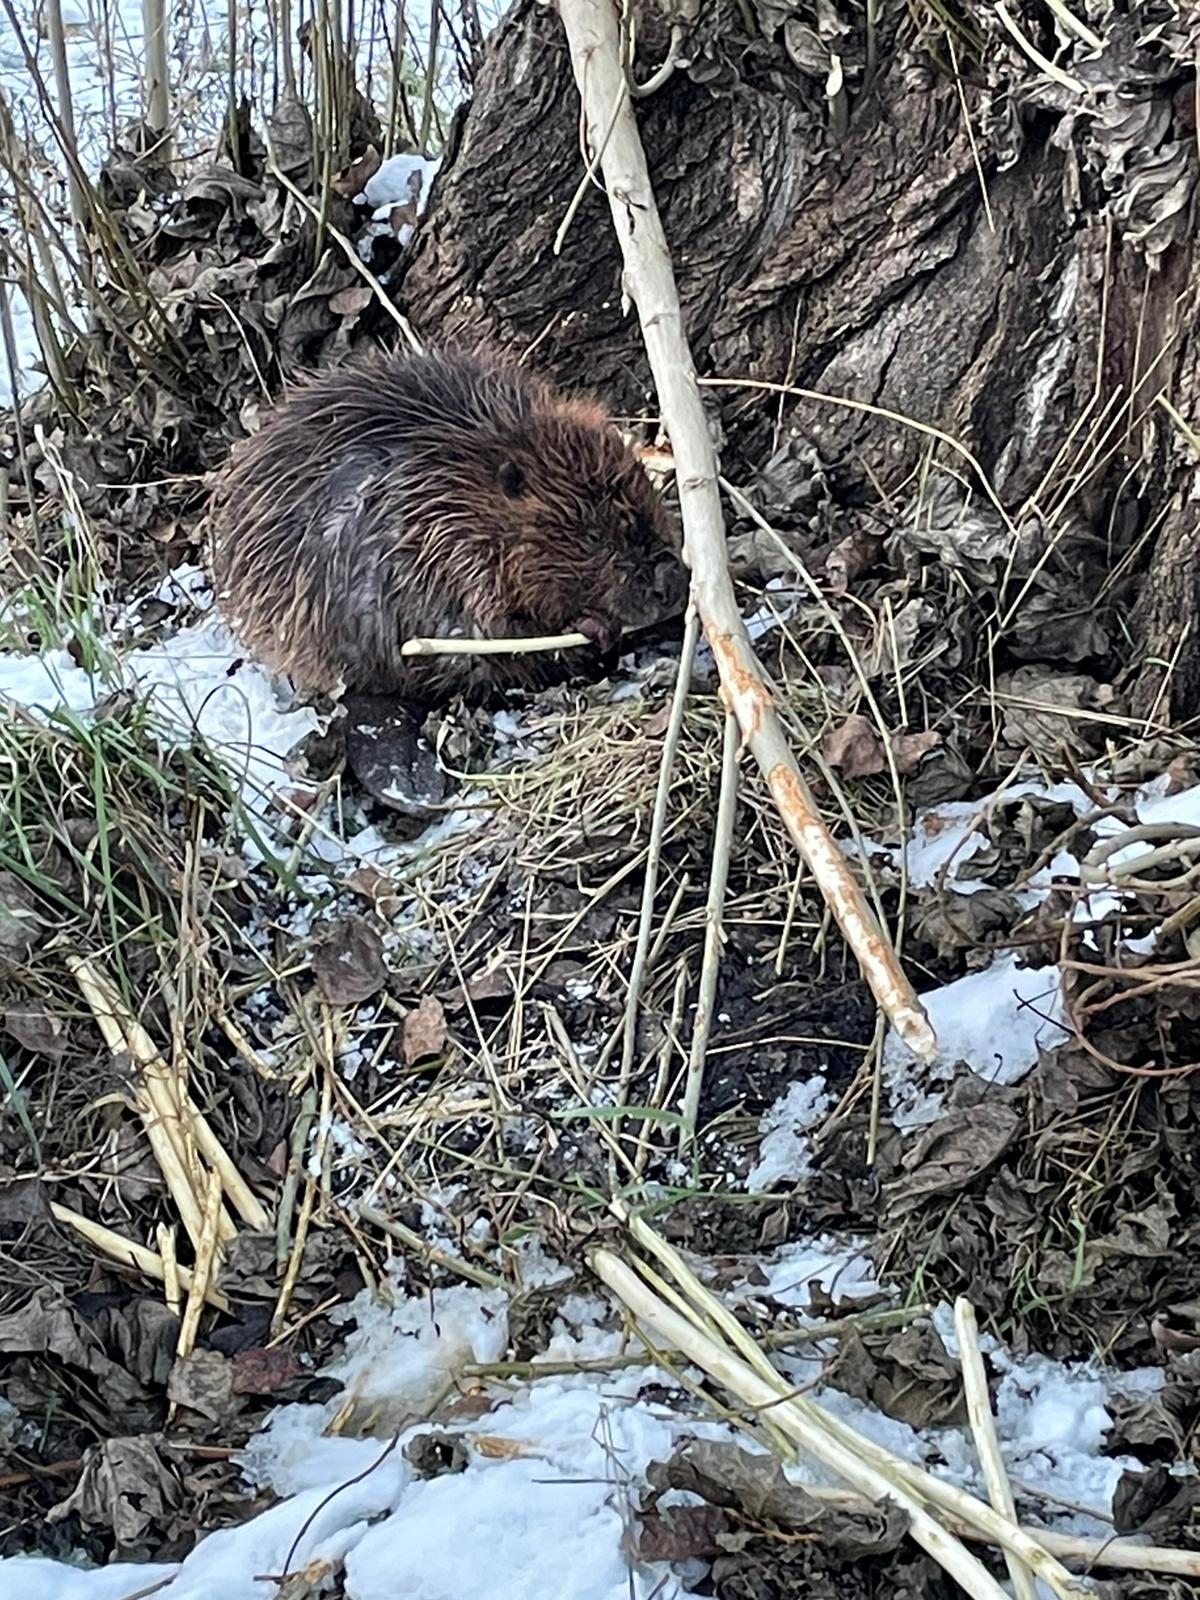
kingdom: Animalia
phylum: Chordata
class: Mammalia
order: Rodentia
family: Castoridae
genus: Castor
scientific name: Castor fiber
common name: Eurasian beaver
